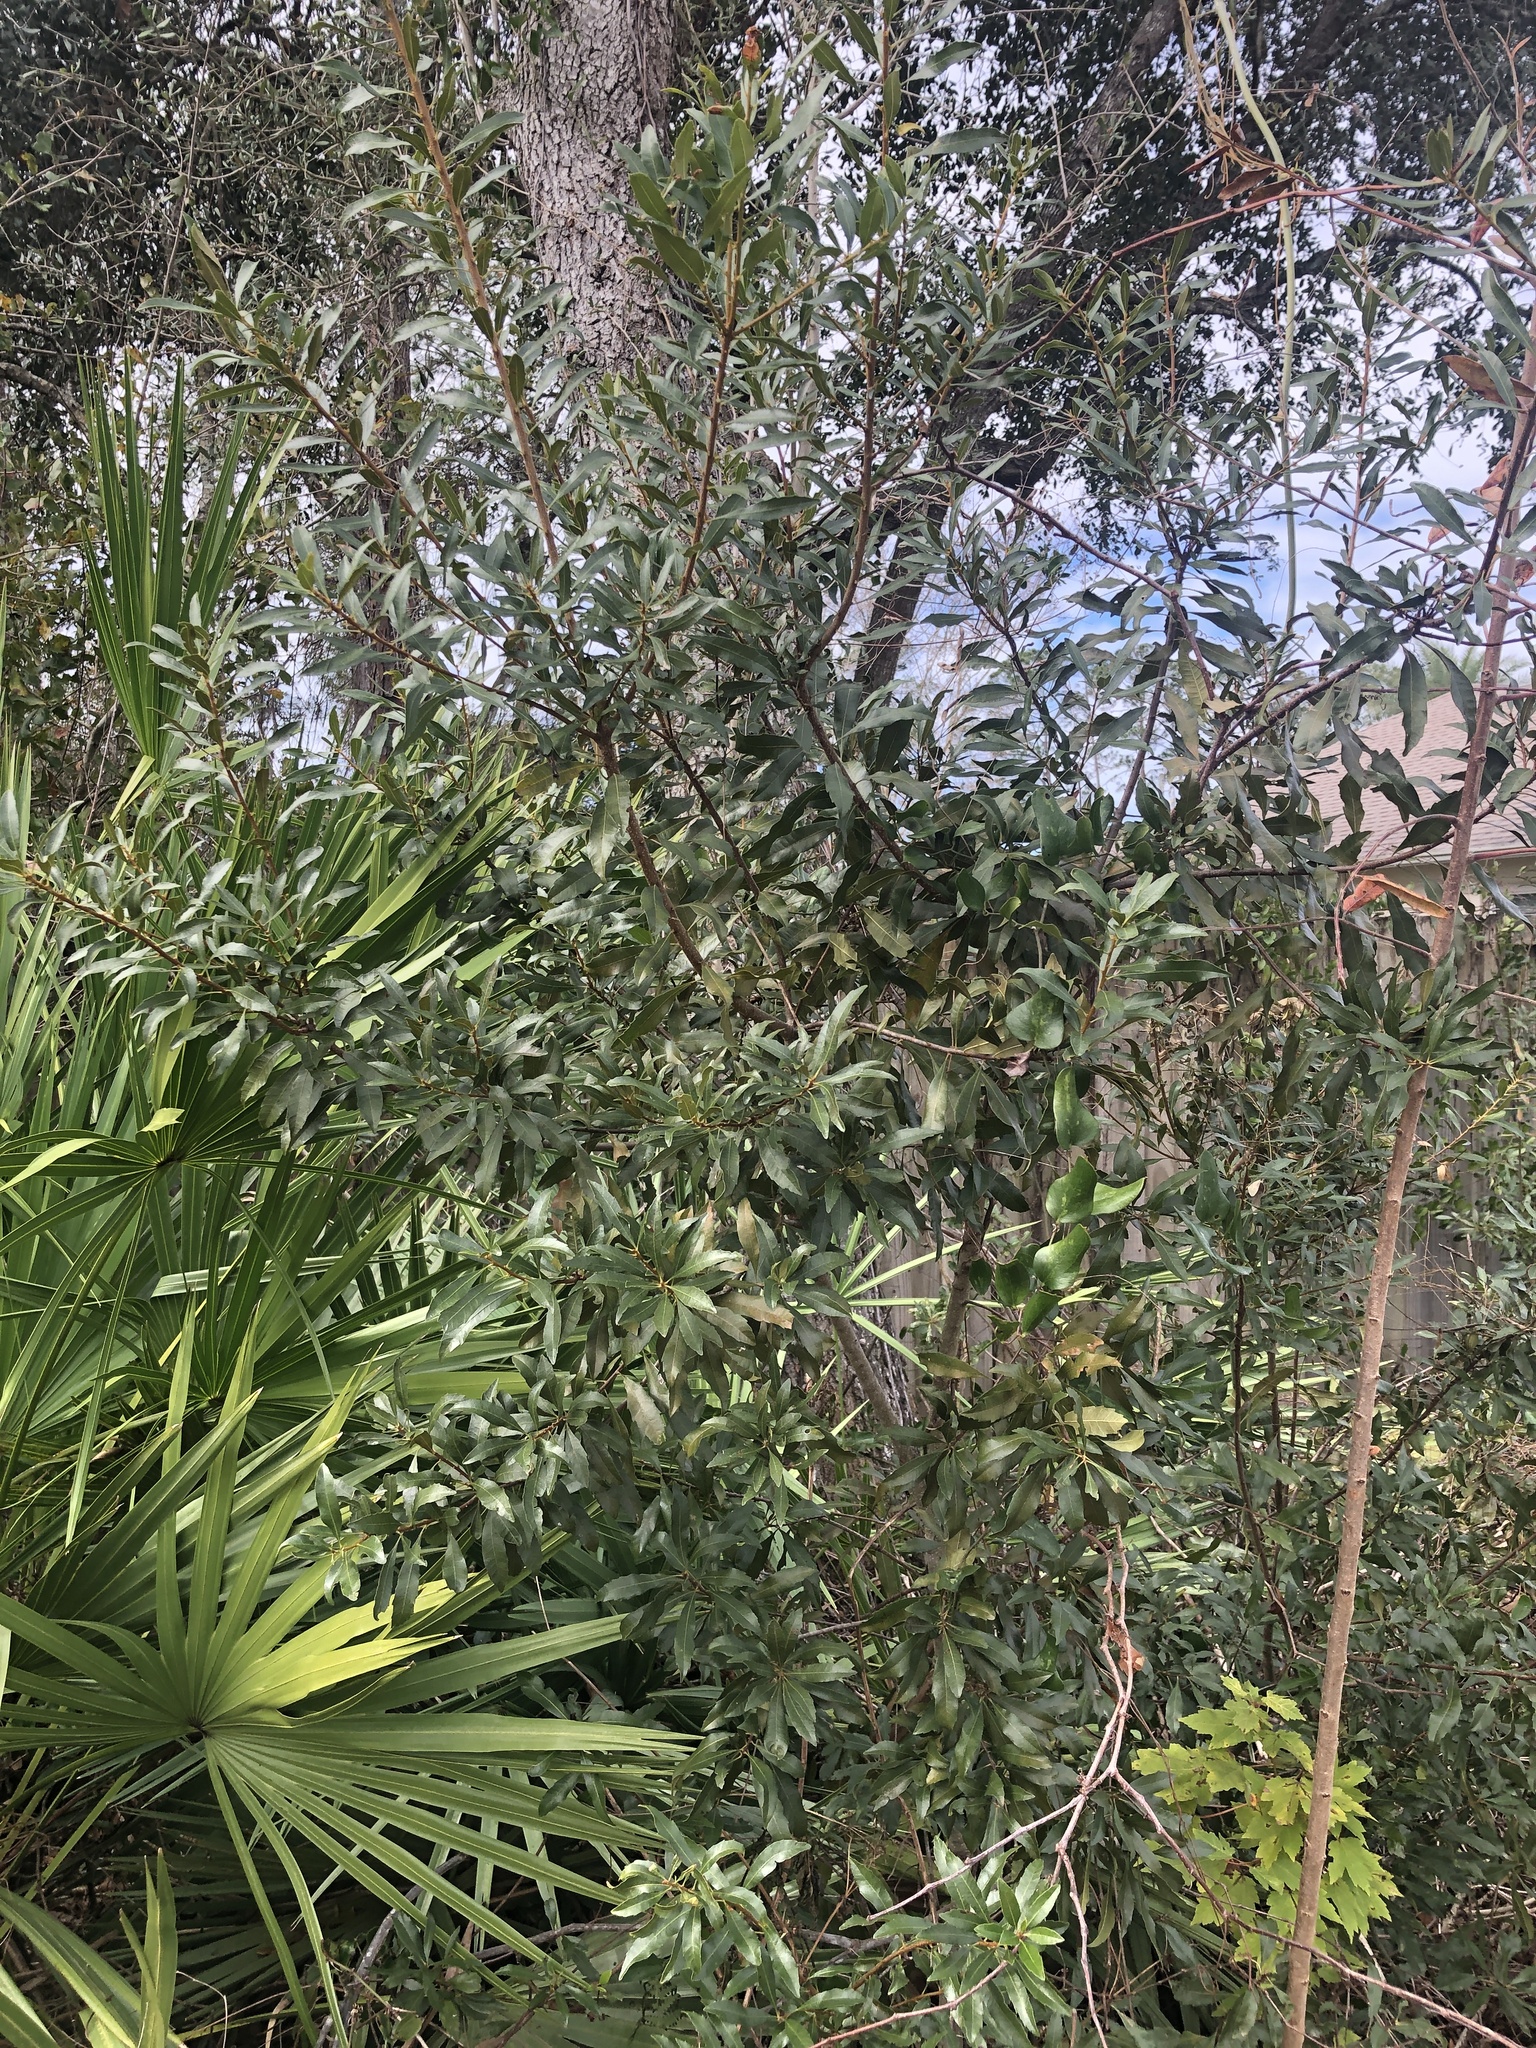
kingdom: Plantae
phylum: Tracheophyta
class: Magnoliopsida
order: Fagales
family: Myricaceae
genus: Morella
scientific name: Morella cerifera
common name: Wax myrtle
